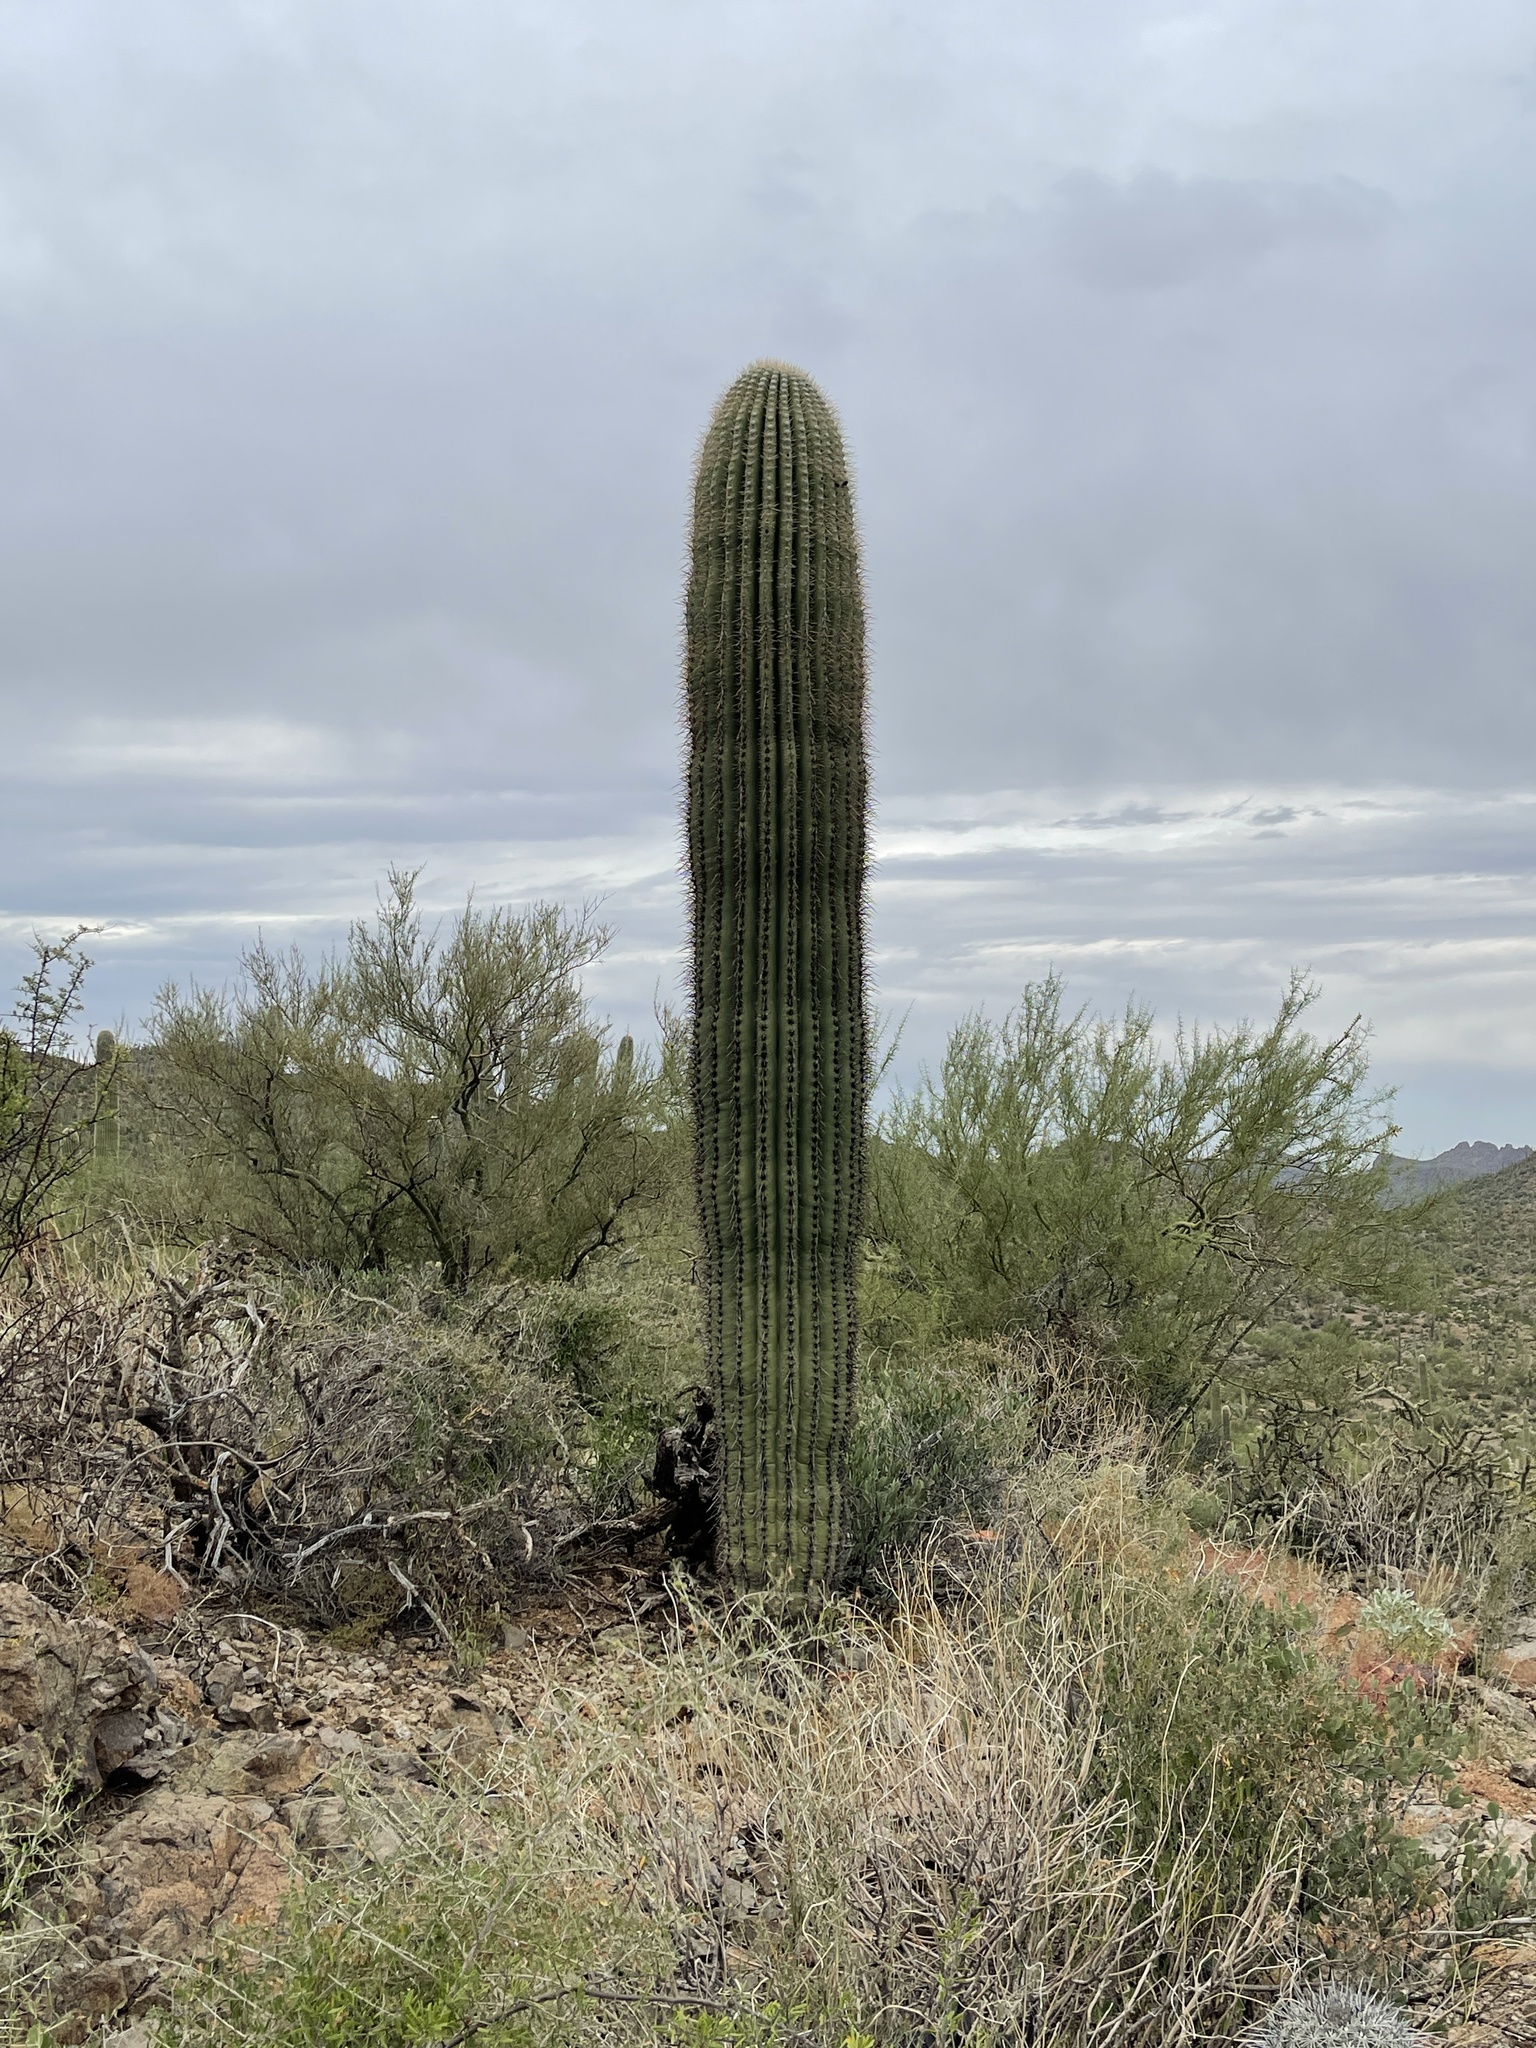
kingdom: Plantae
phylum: Tracheophyta
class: Magnoliopsida
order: Caryophyllales
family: Cactaceae
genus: Carnegiea
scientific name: Carnegiea gigantea
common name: Saguaro
